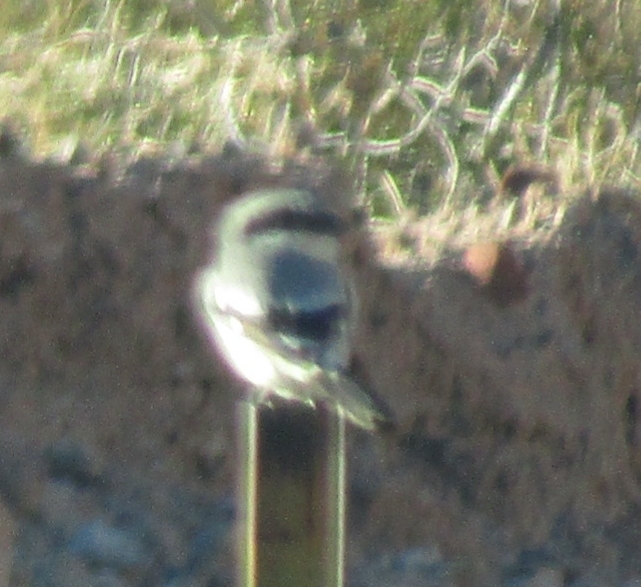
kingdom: Animalia
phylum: Chordata
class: Aves
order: Passeriformes
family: Laniidae
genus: Lanius
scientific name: Lanius ludovicianus
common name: Loggerhead shrike
